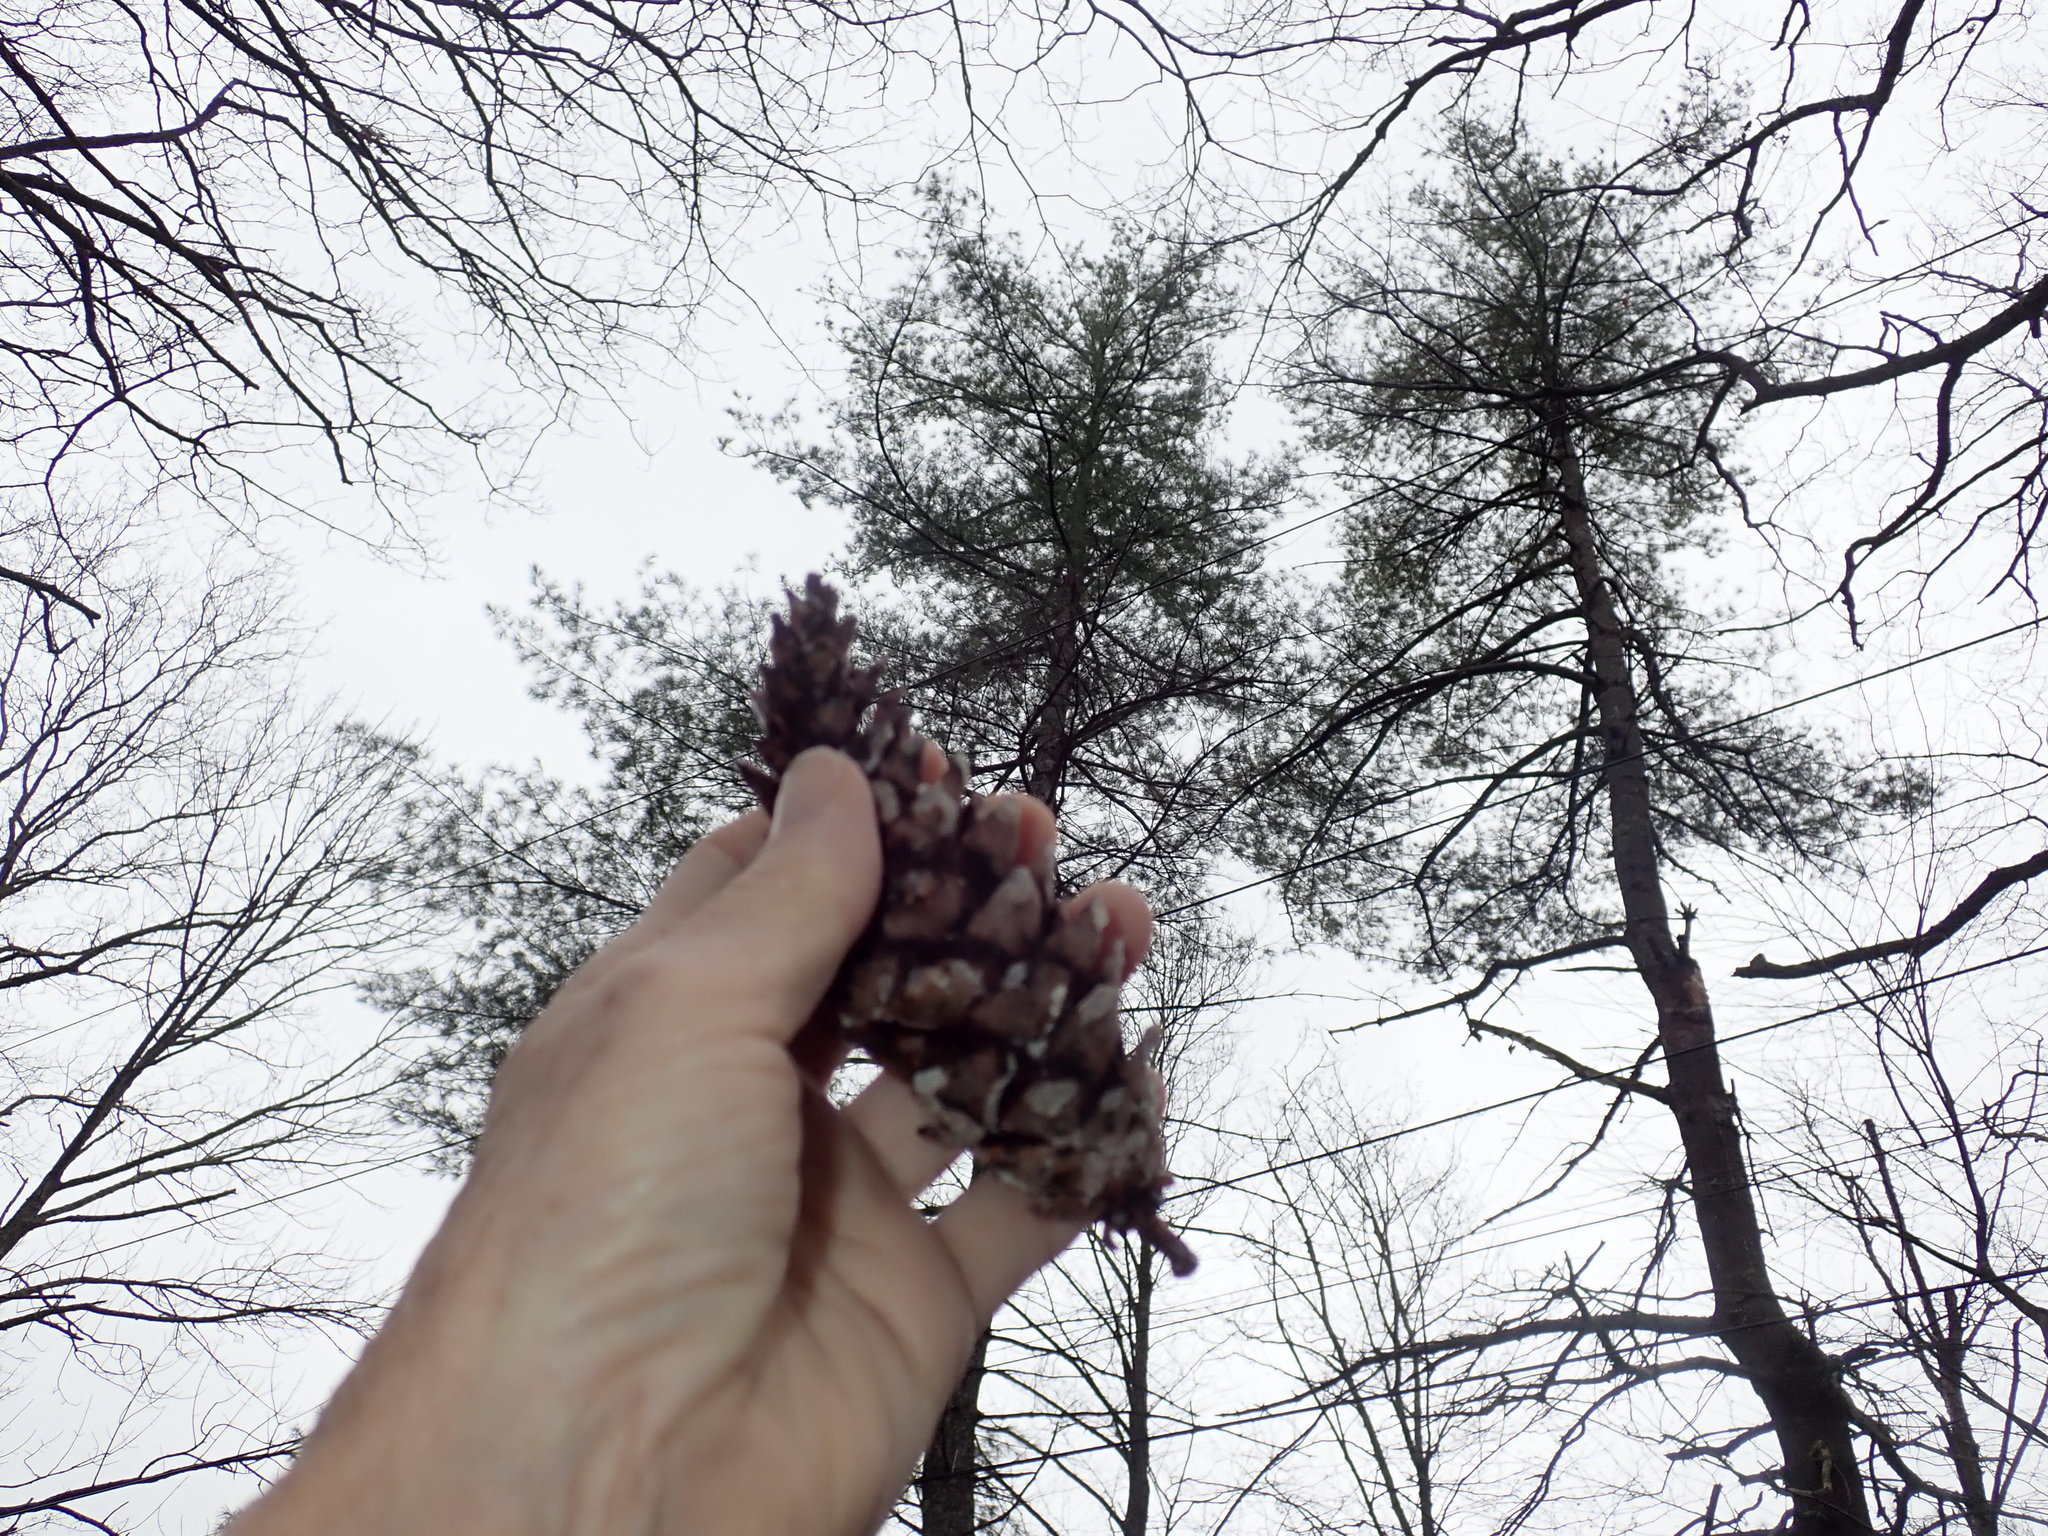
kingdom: Plantae
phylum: Tracheophyta
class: Pinopsida
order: Pinales
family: Pinaceae
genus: Pinus
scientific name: Pinus strobus
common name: Weymouth pine
